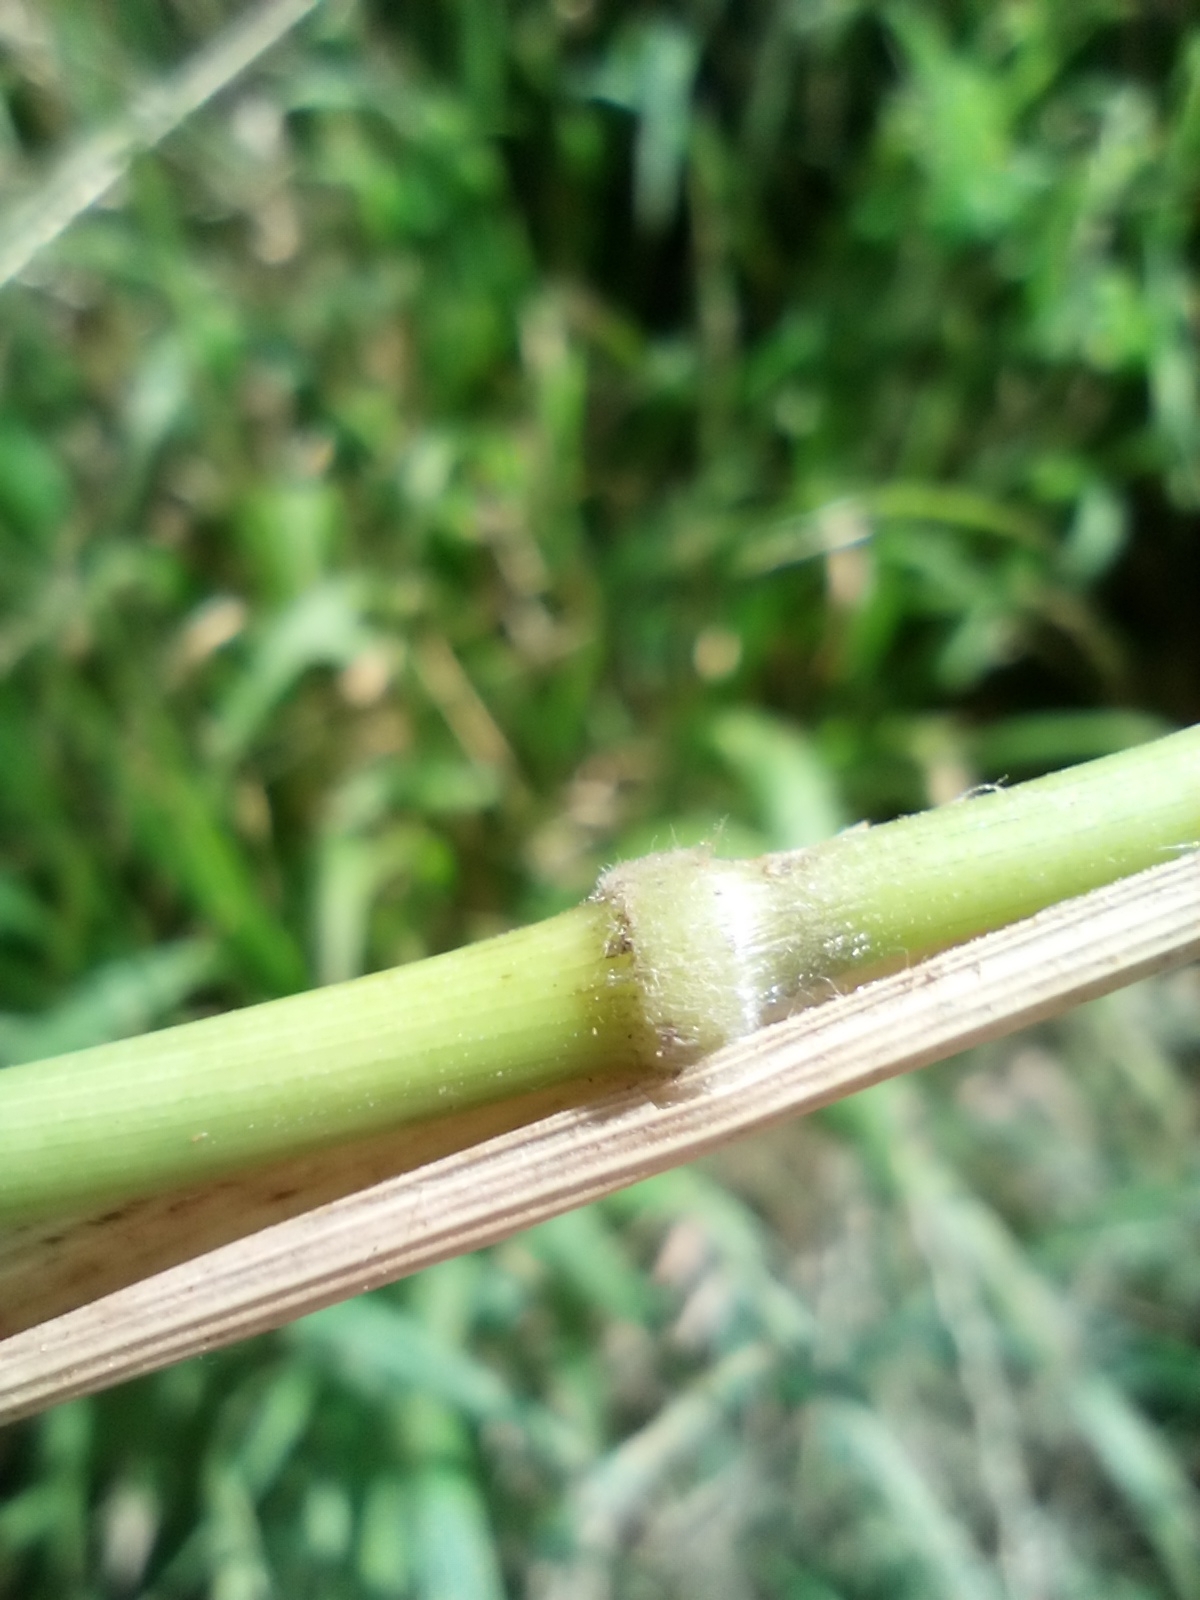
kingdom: Plantae
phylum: Tracheophyta
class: Liliopsida
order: Poales
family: Poaceae
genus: Brachypodium
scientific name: Brachypodium sylvaticum
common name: False-brome
